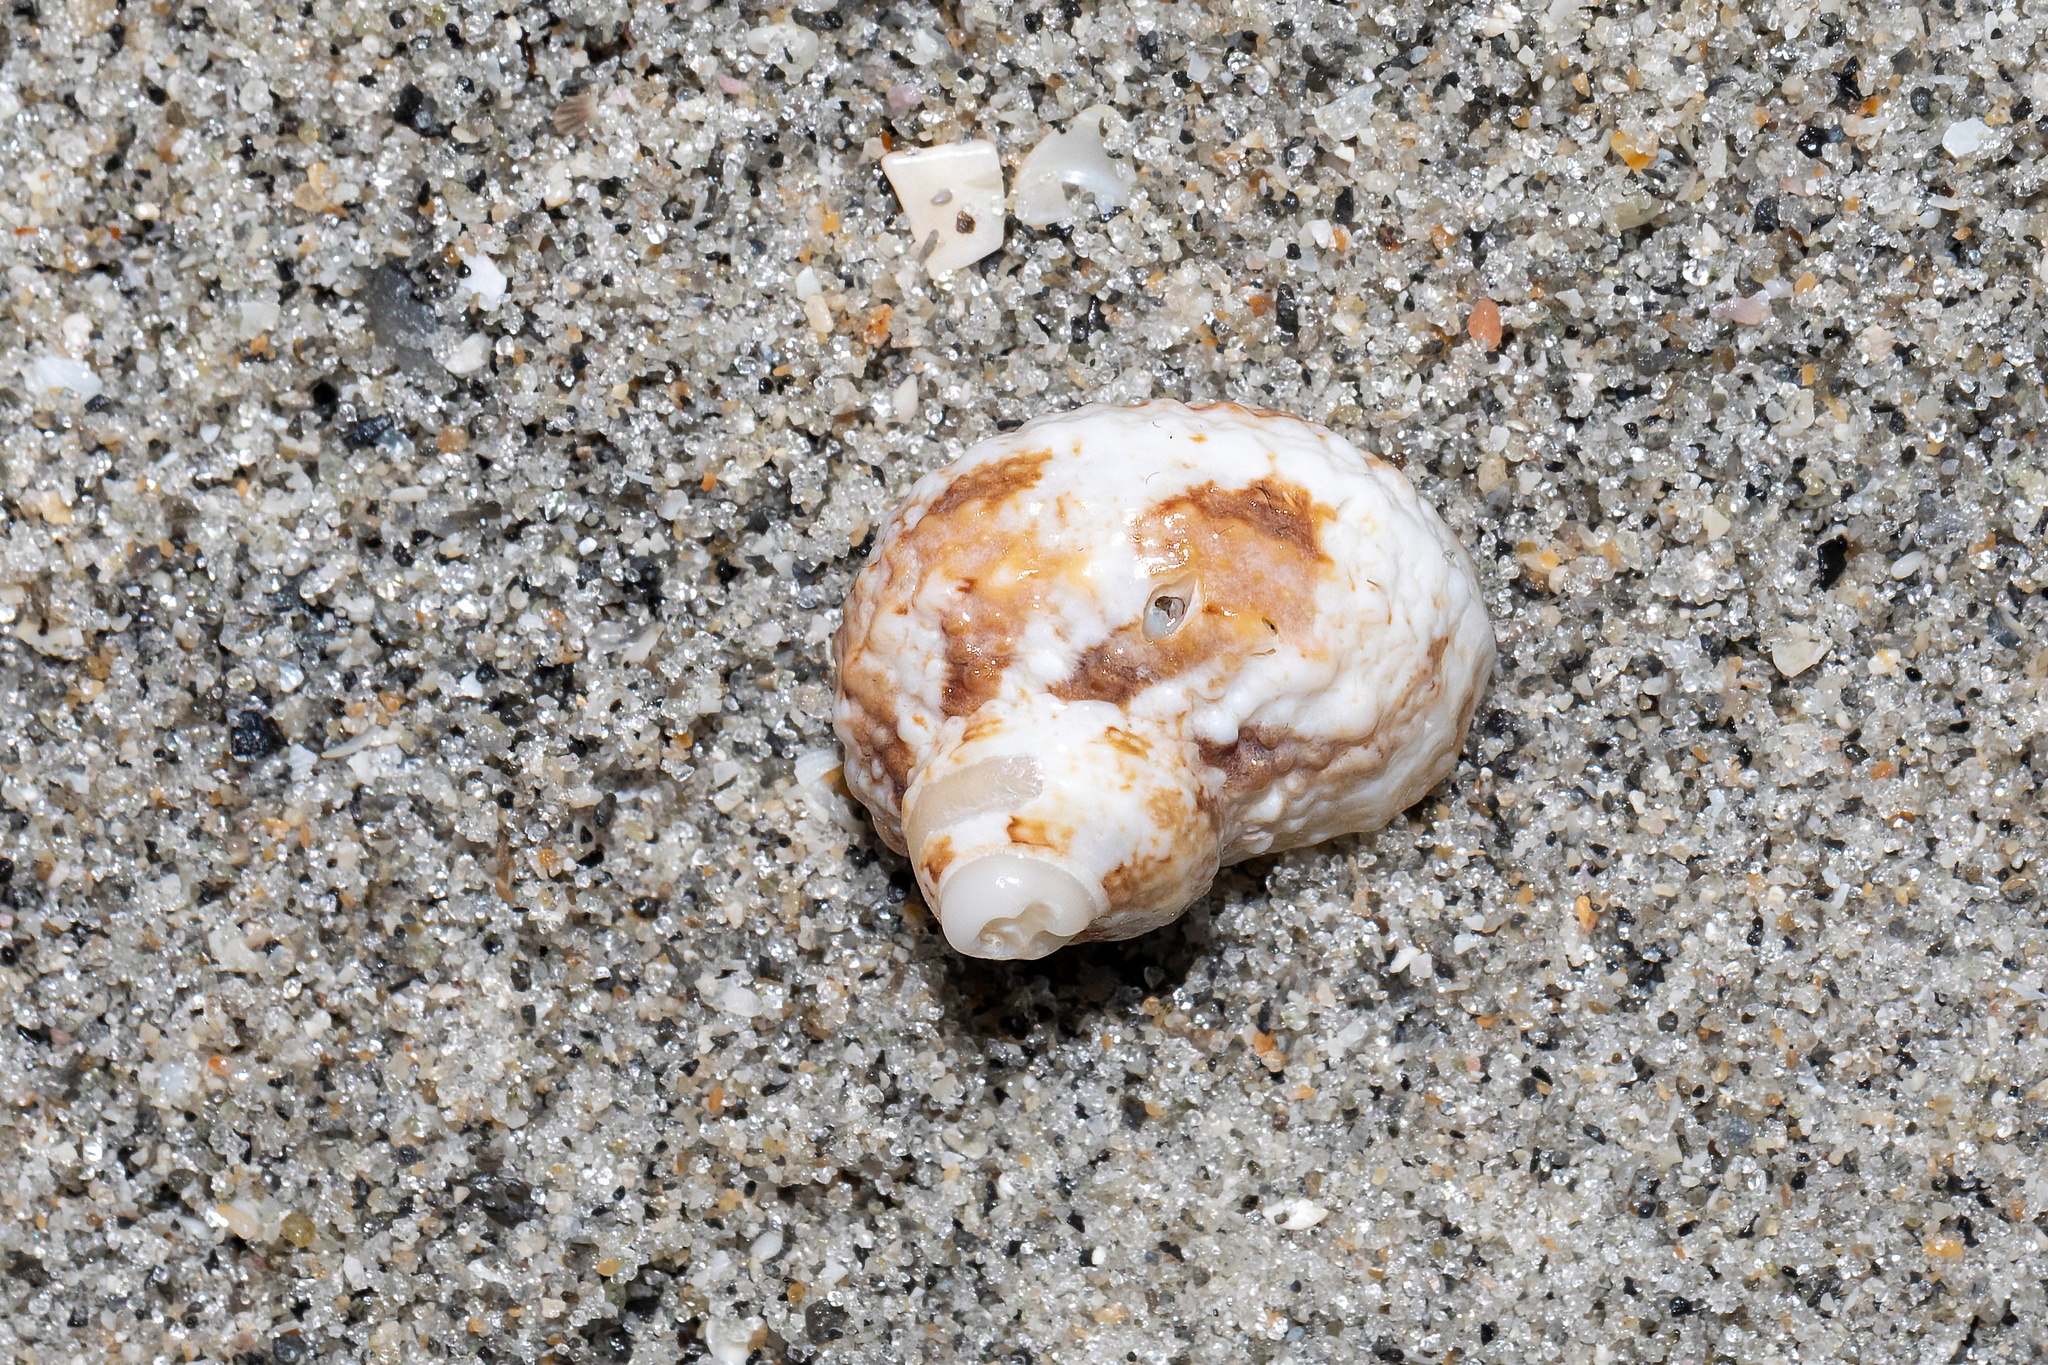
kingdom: Animalia
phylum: Mollusca
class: Gastropoda
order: Trochida
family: Turbinidae
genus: Turbo
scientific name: Turbo castanea
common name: Chestnut turban
